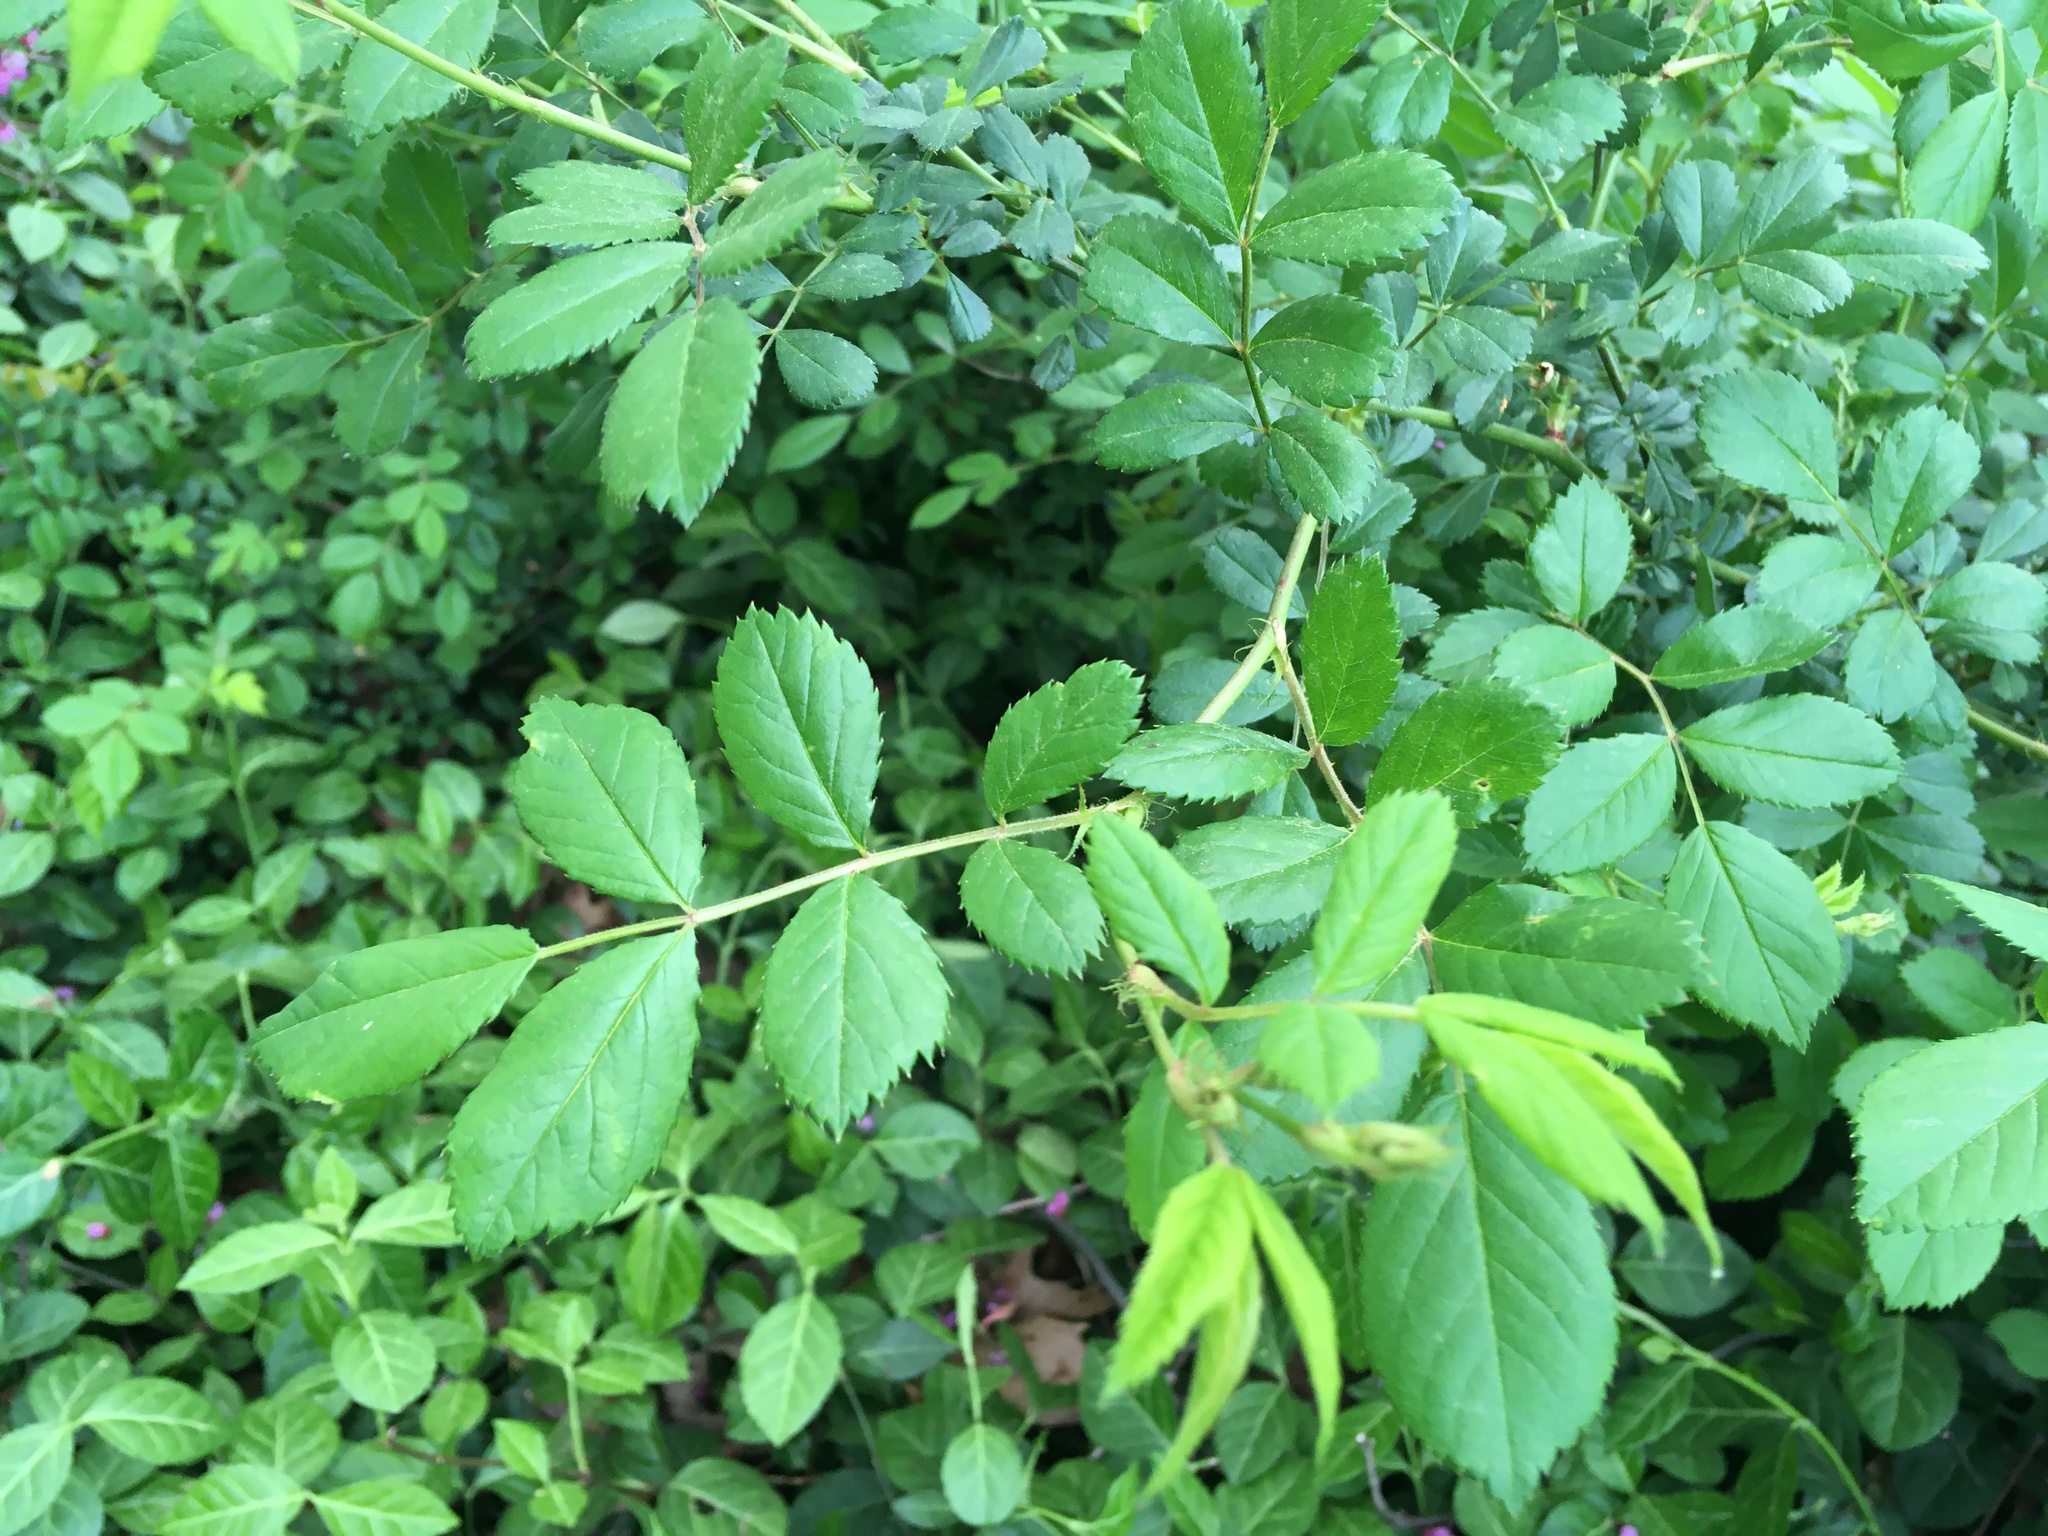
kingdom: Plantae
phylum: Tracheophyta
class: Magnoliopsida
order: Rosales
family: Rosaceae
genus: Rosa
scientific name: Rosa multiflora
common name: Multiflora rose
